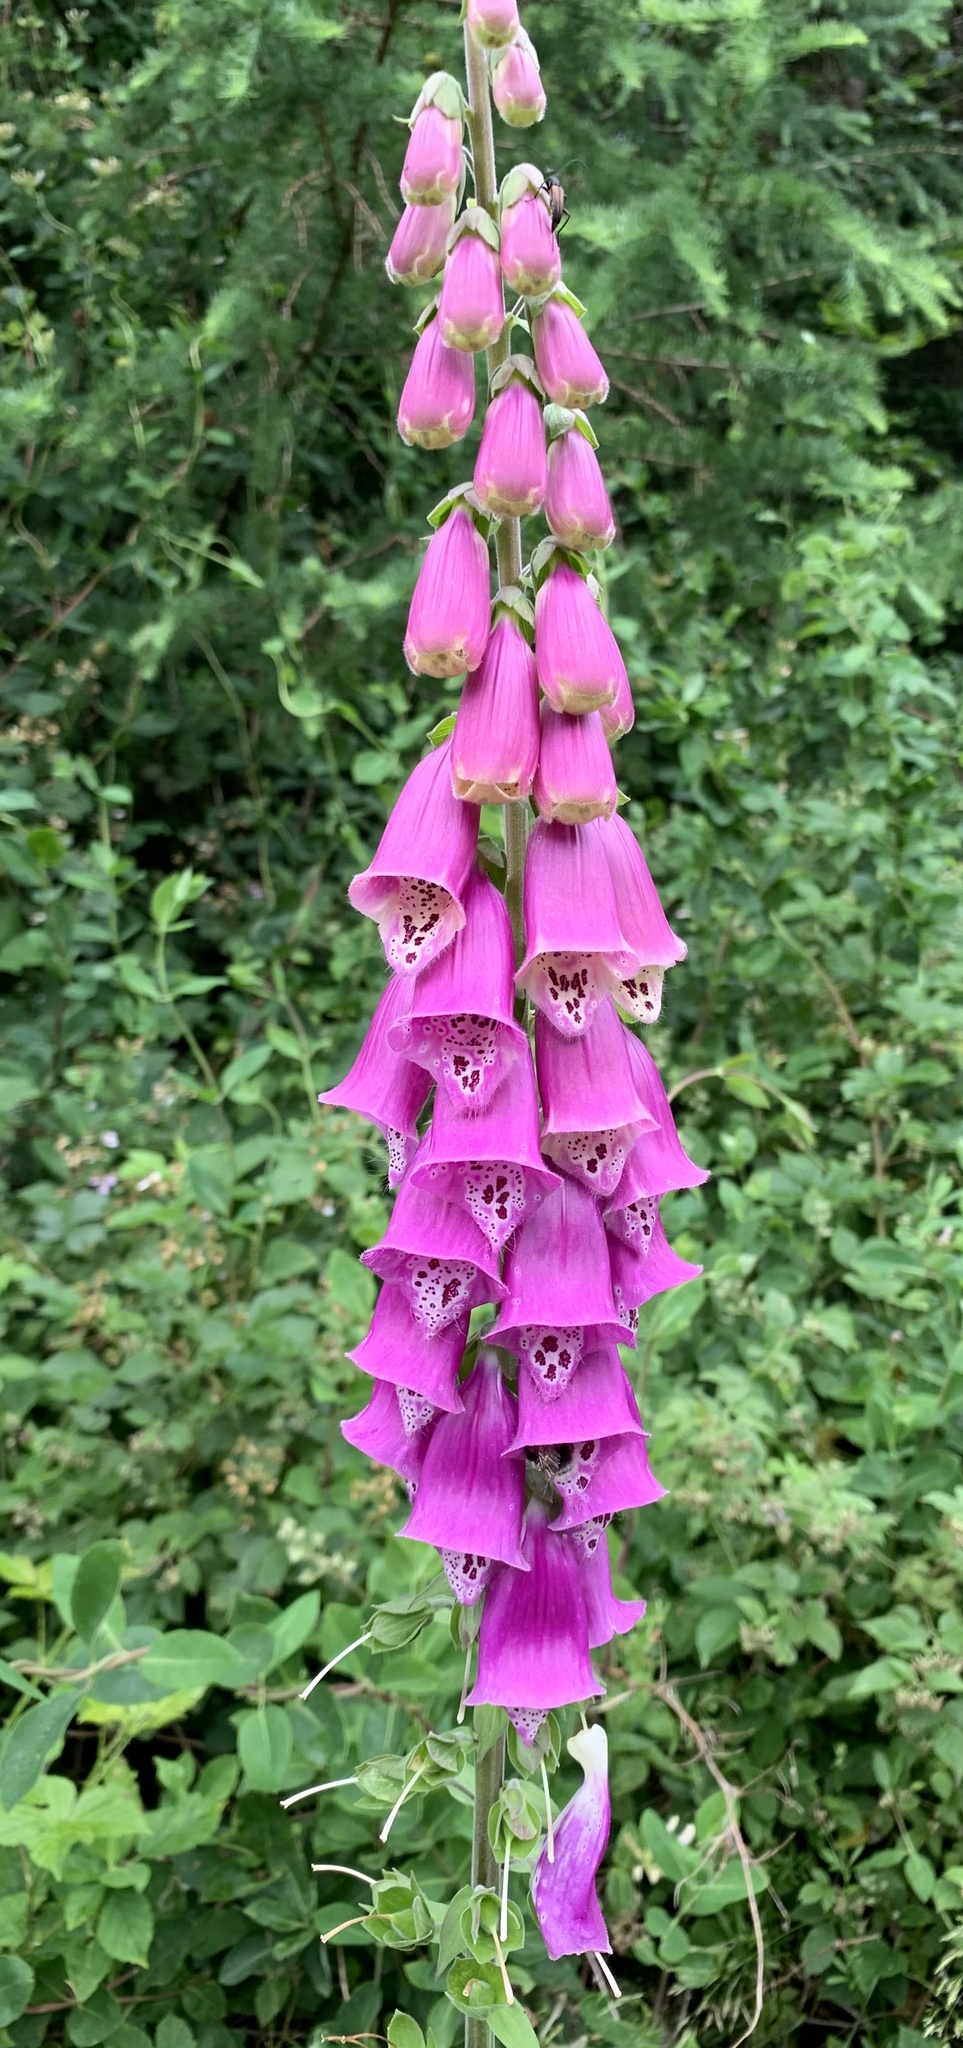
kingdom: Plantae
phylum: Tracheophyta
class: Magnoliopsida
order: Lamiales
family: Plantaginaceae
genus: Digitalis
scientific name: Digitalis purpurea
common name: Foxglove
